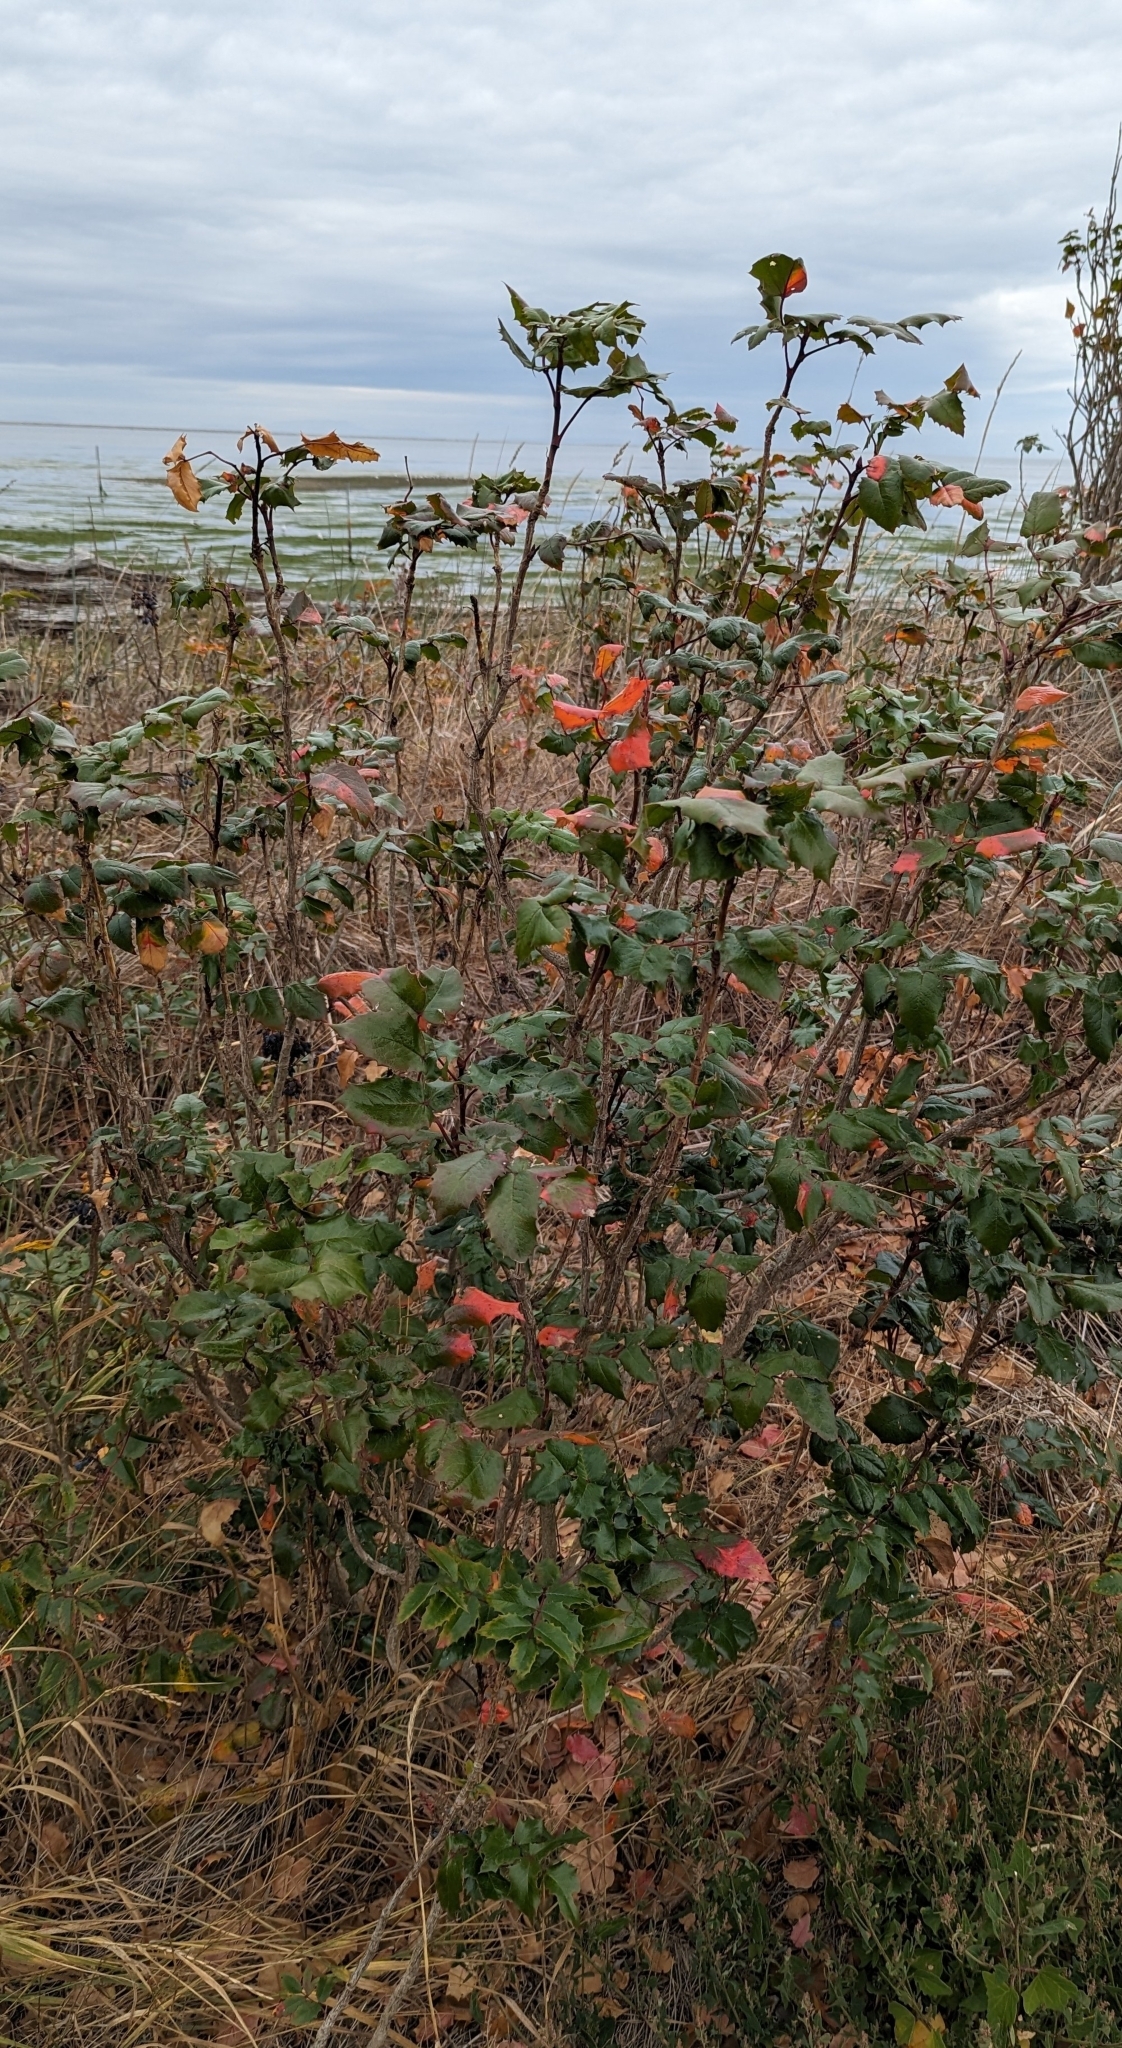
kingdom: Plantae
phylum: Tracheophyta
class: Magnoliopsida
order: Ranunculales
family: Berberidaceae
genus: Mahonia
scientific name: Mahonia aquifolium
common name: Oregon-grape
